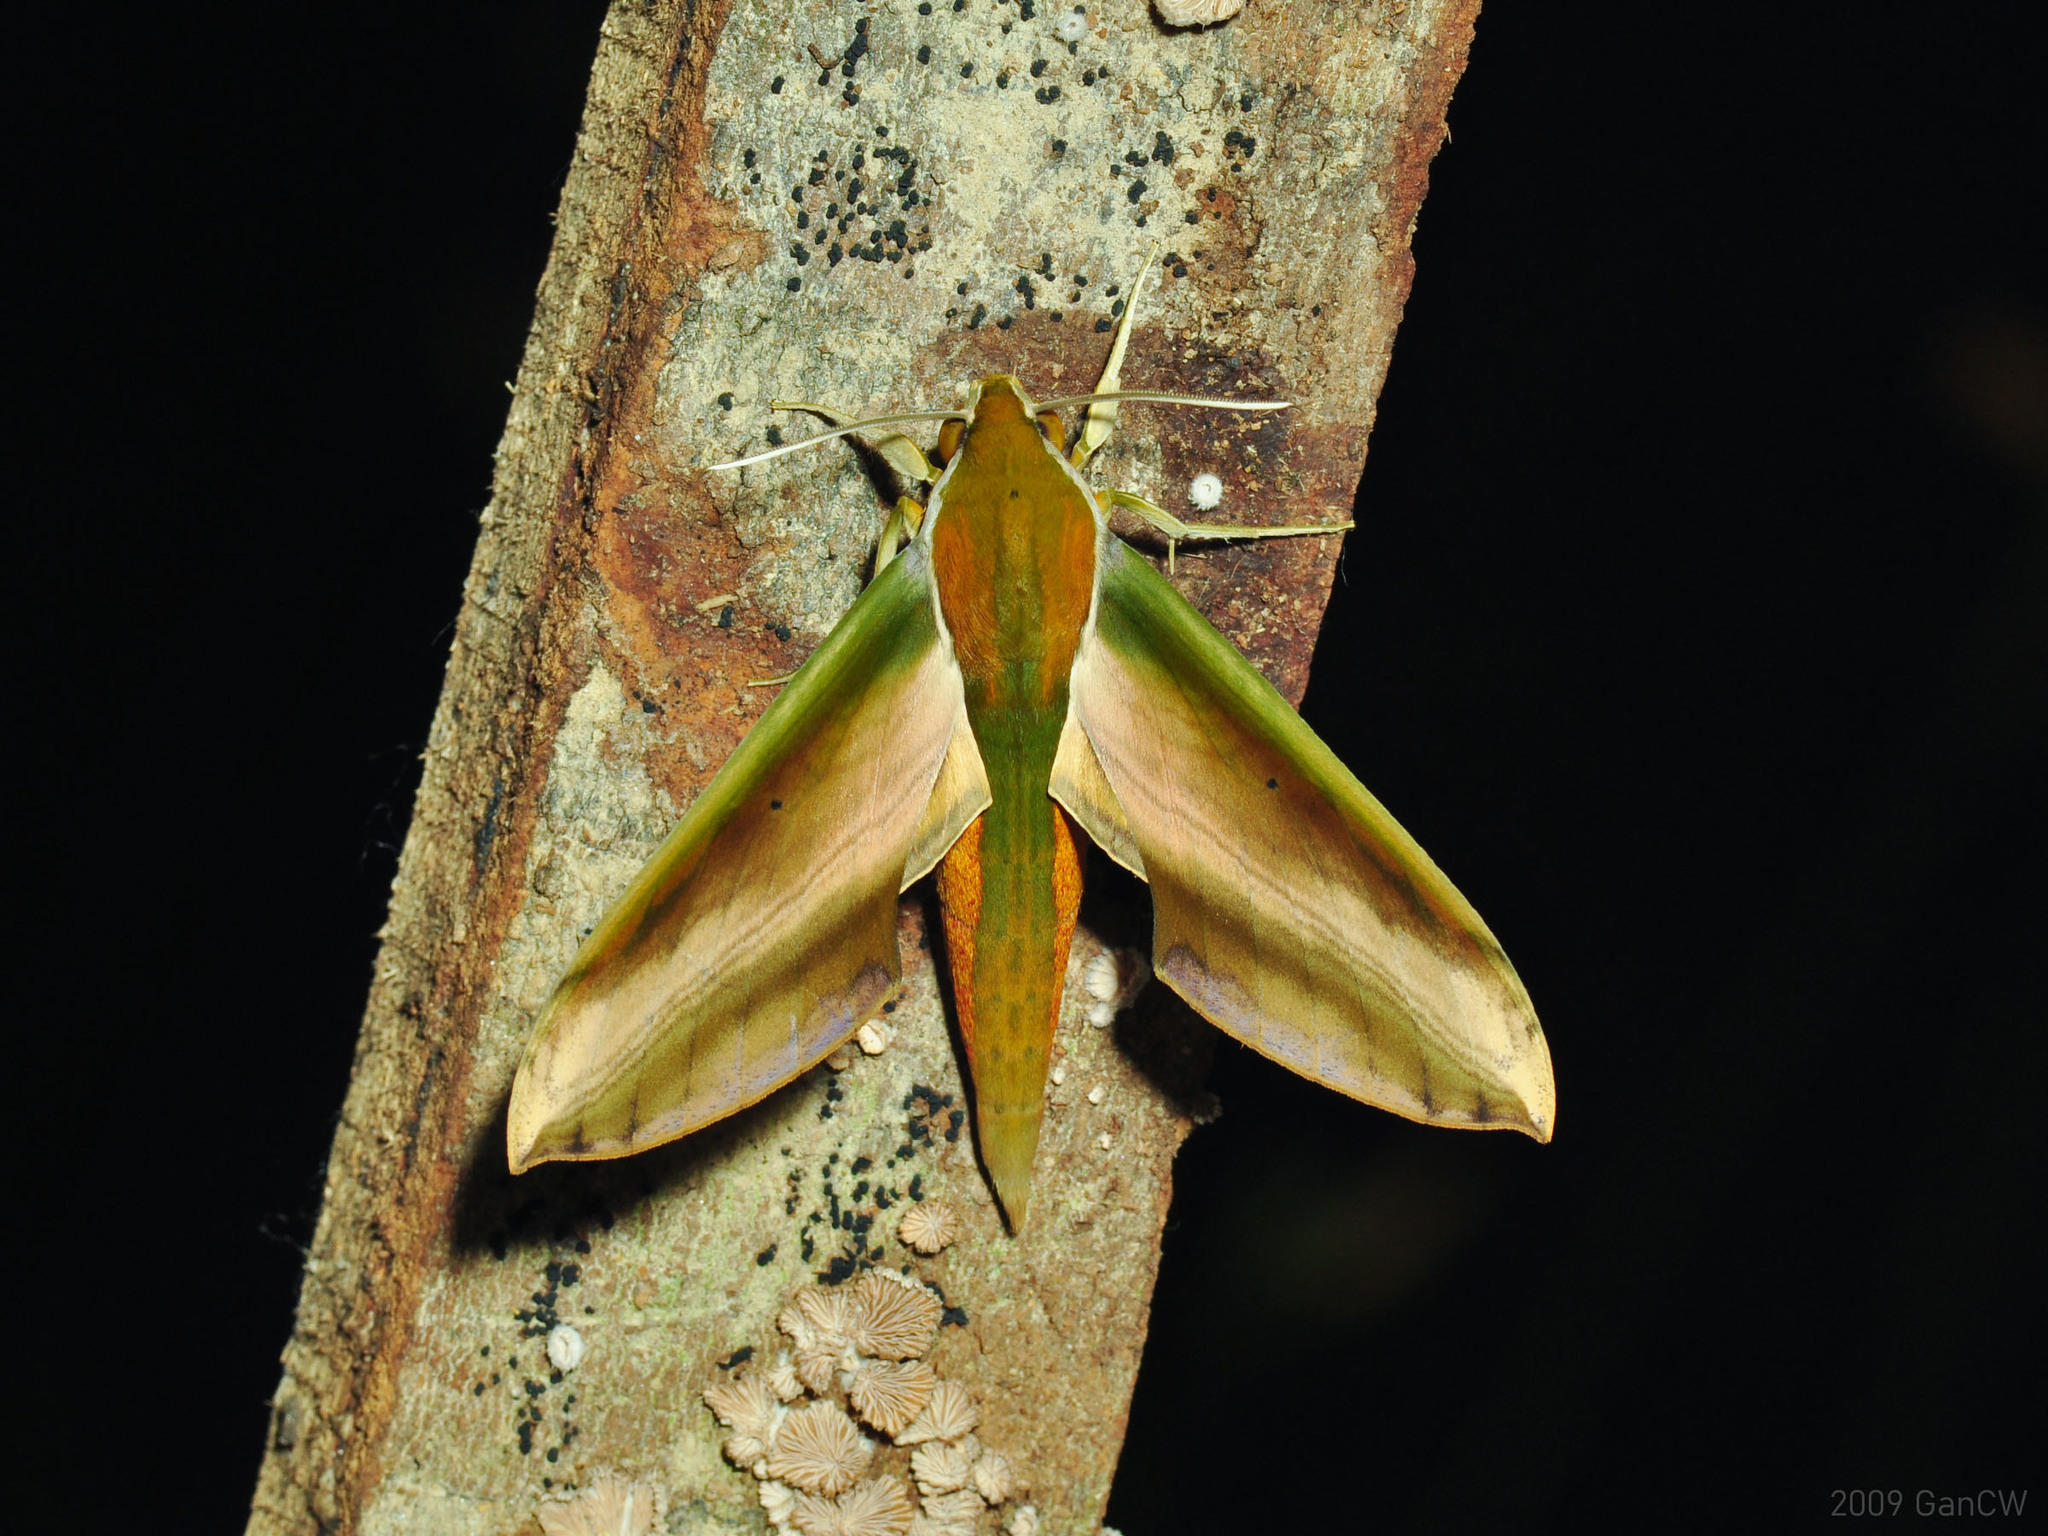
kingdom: Animalia
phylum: Arthropoda
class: Insecta
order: Lepidoptera
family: Sphingidae
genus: Theretra
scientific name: Theretra nessus
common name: Yam hawk moth
